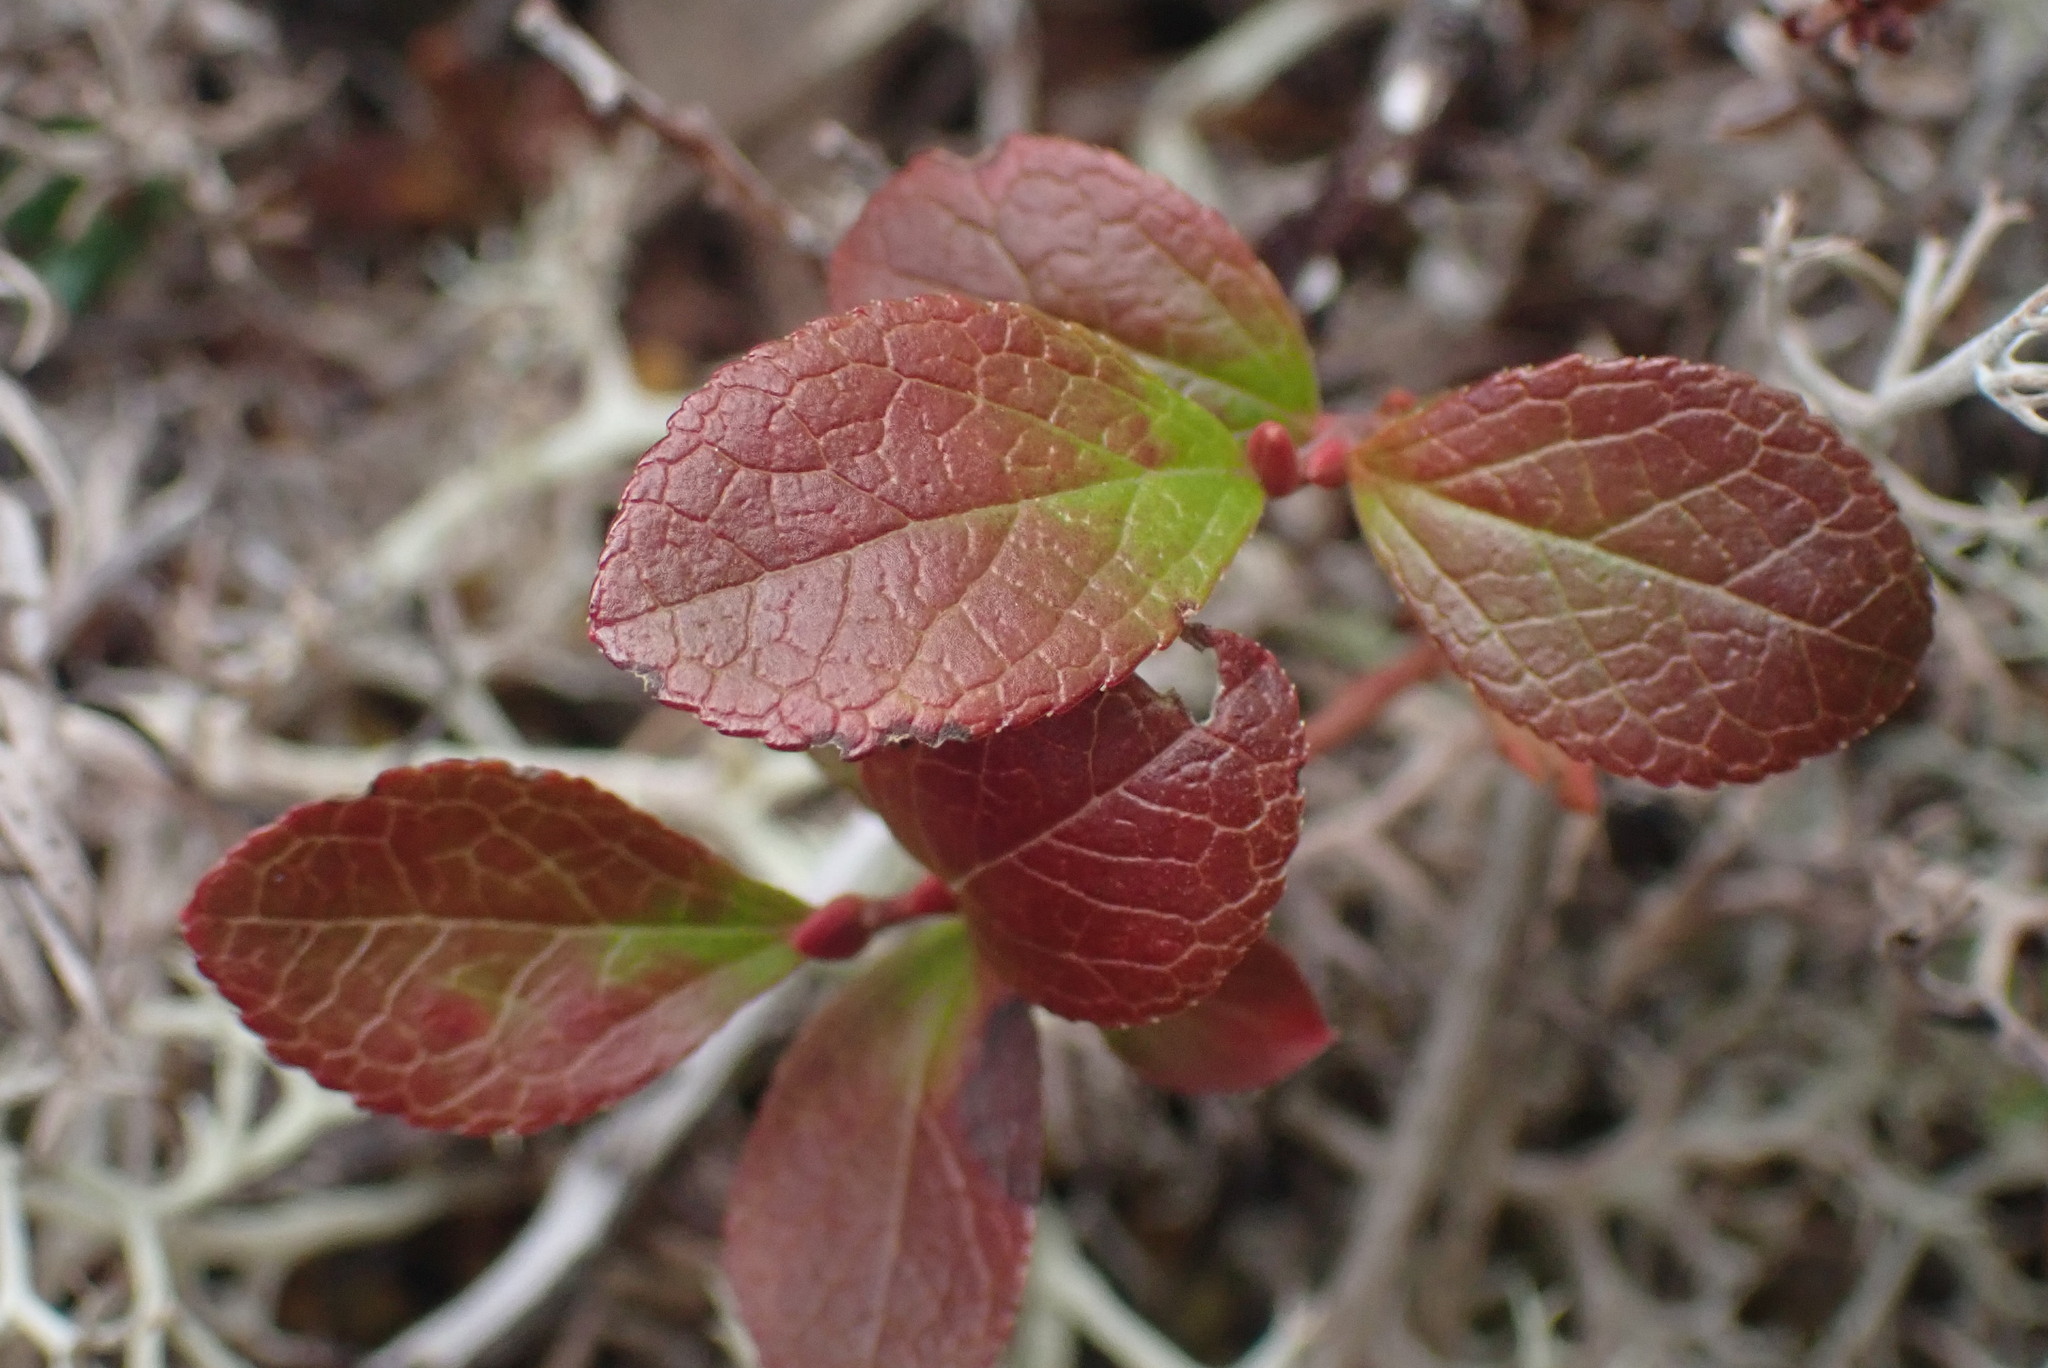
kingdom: Plantae
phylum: Tracheophyta
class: Magnoliopsida
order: Ericales
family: Ericaceae
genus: Vaccinium
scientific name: Vaccinium cespitosum
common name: Dwarf bilberry
